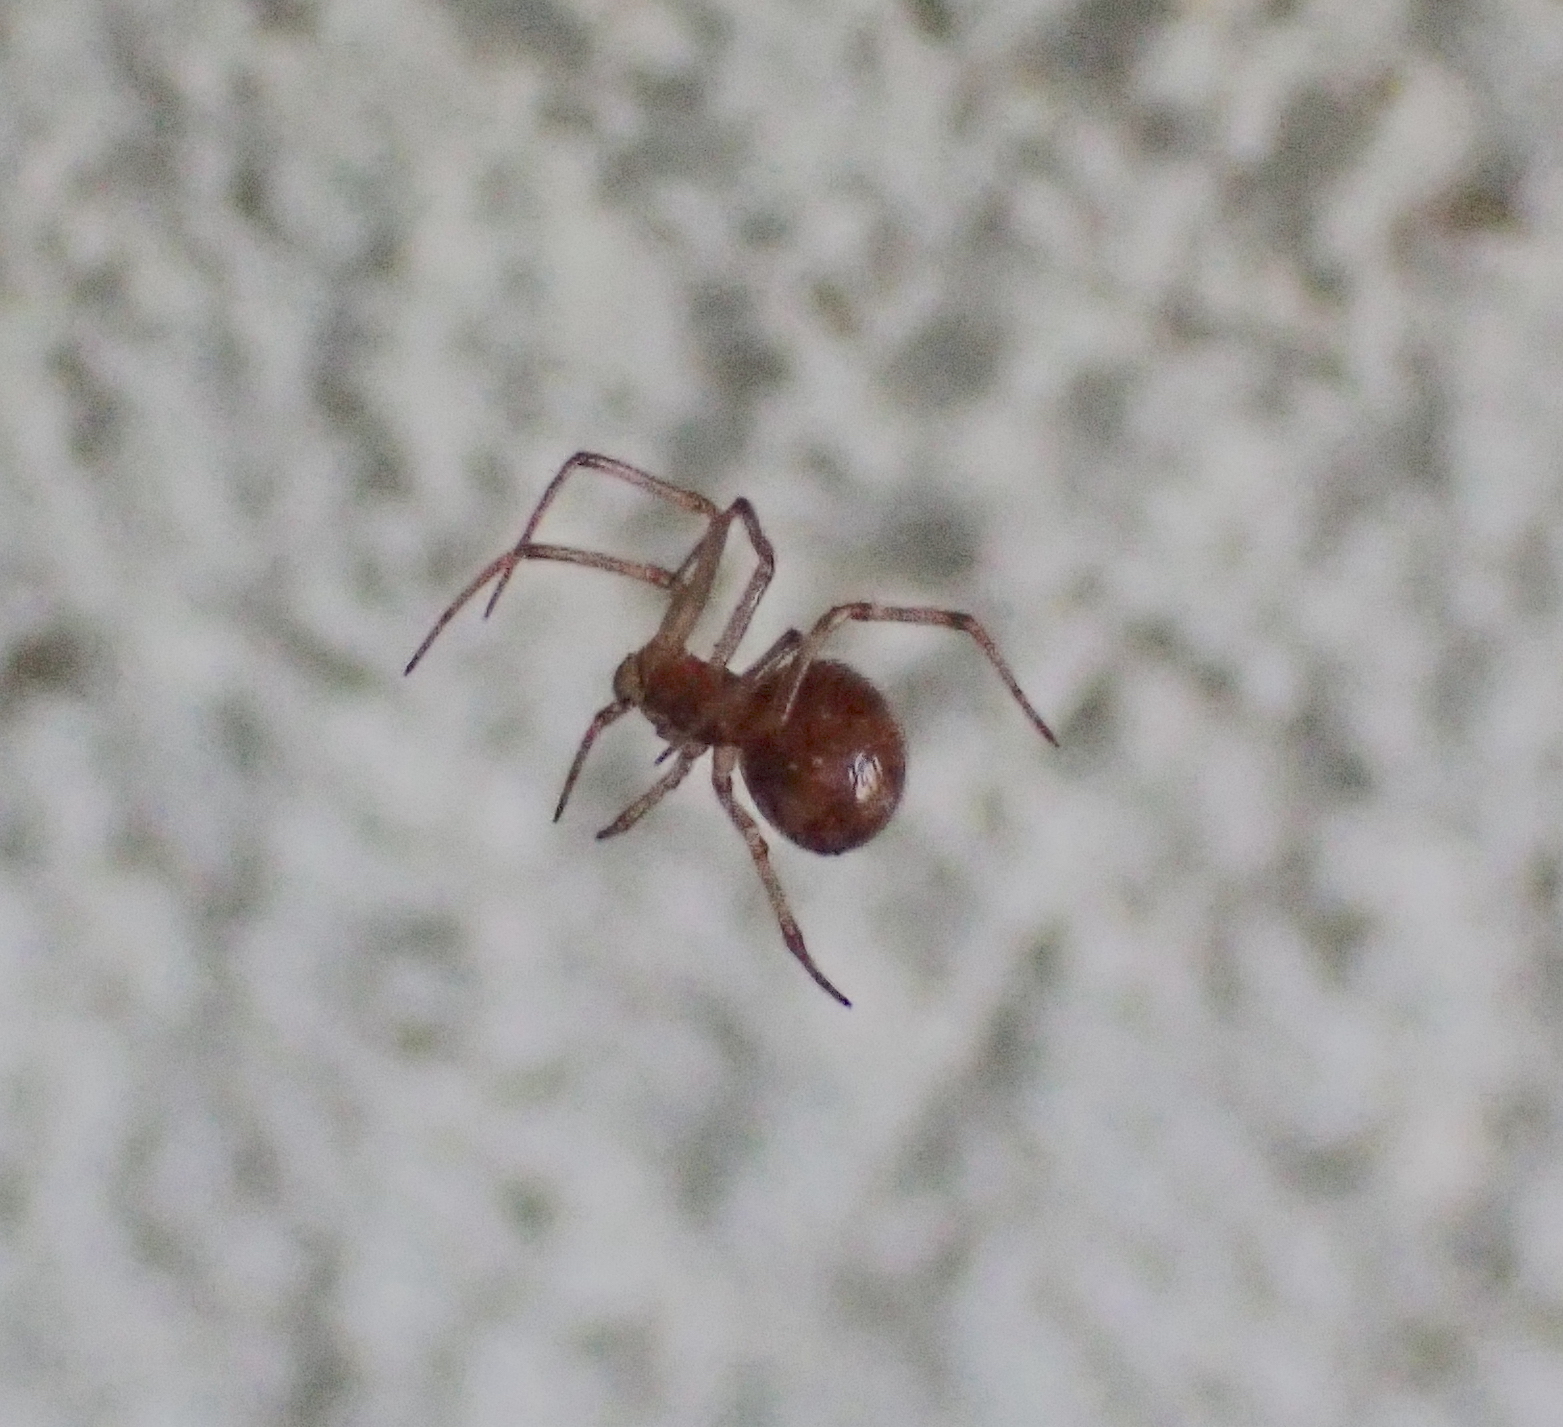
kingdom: Animalia
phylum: Arthropoda
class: Arachnida
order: Araneae
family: Theridiidae
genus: Steatoda
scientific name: Steatoda triangulosa
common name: Triangulate bud spider
